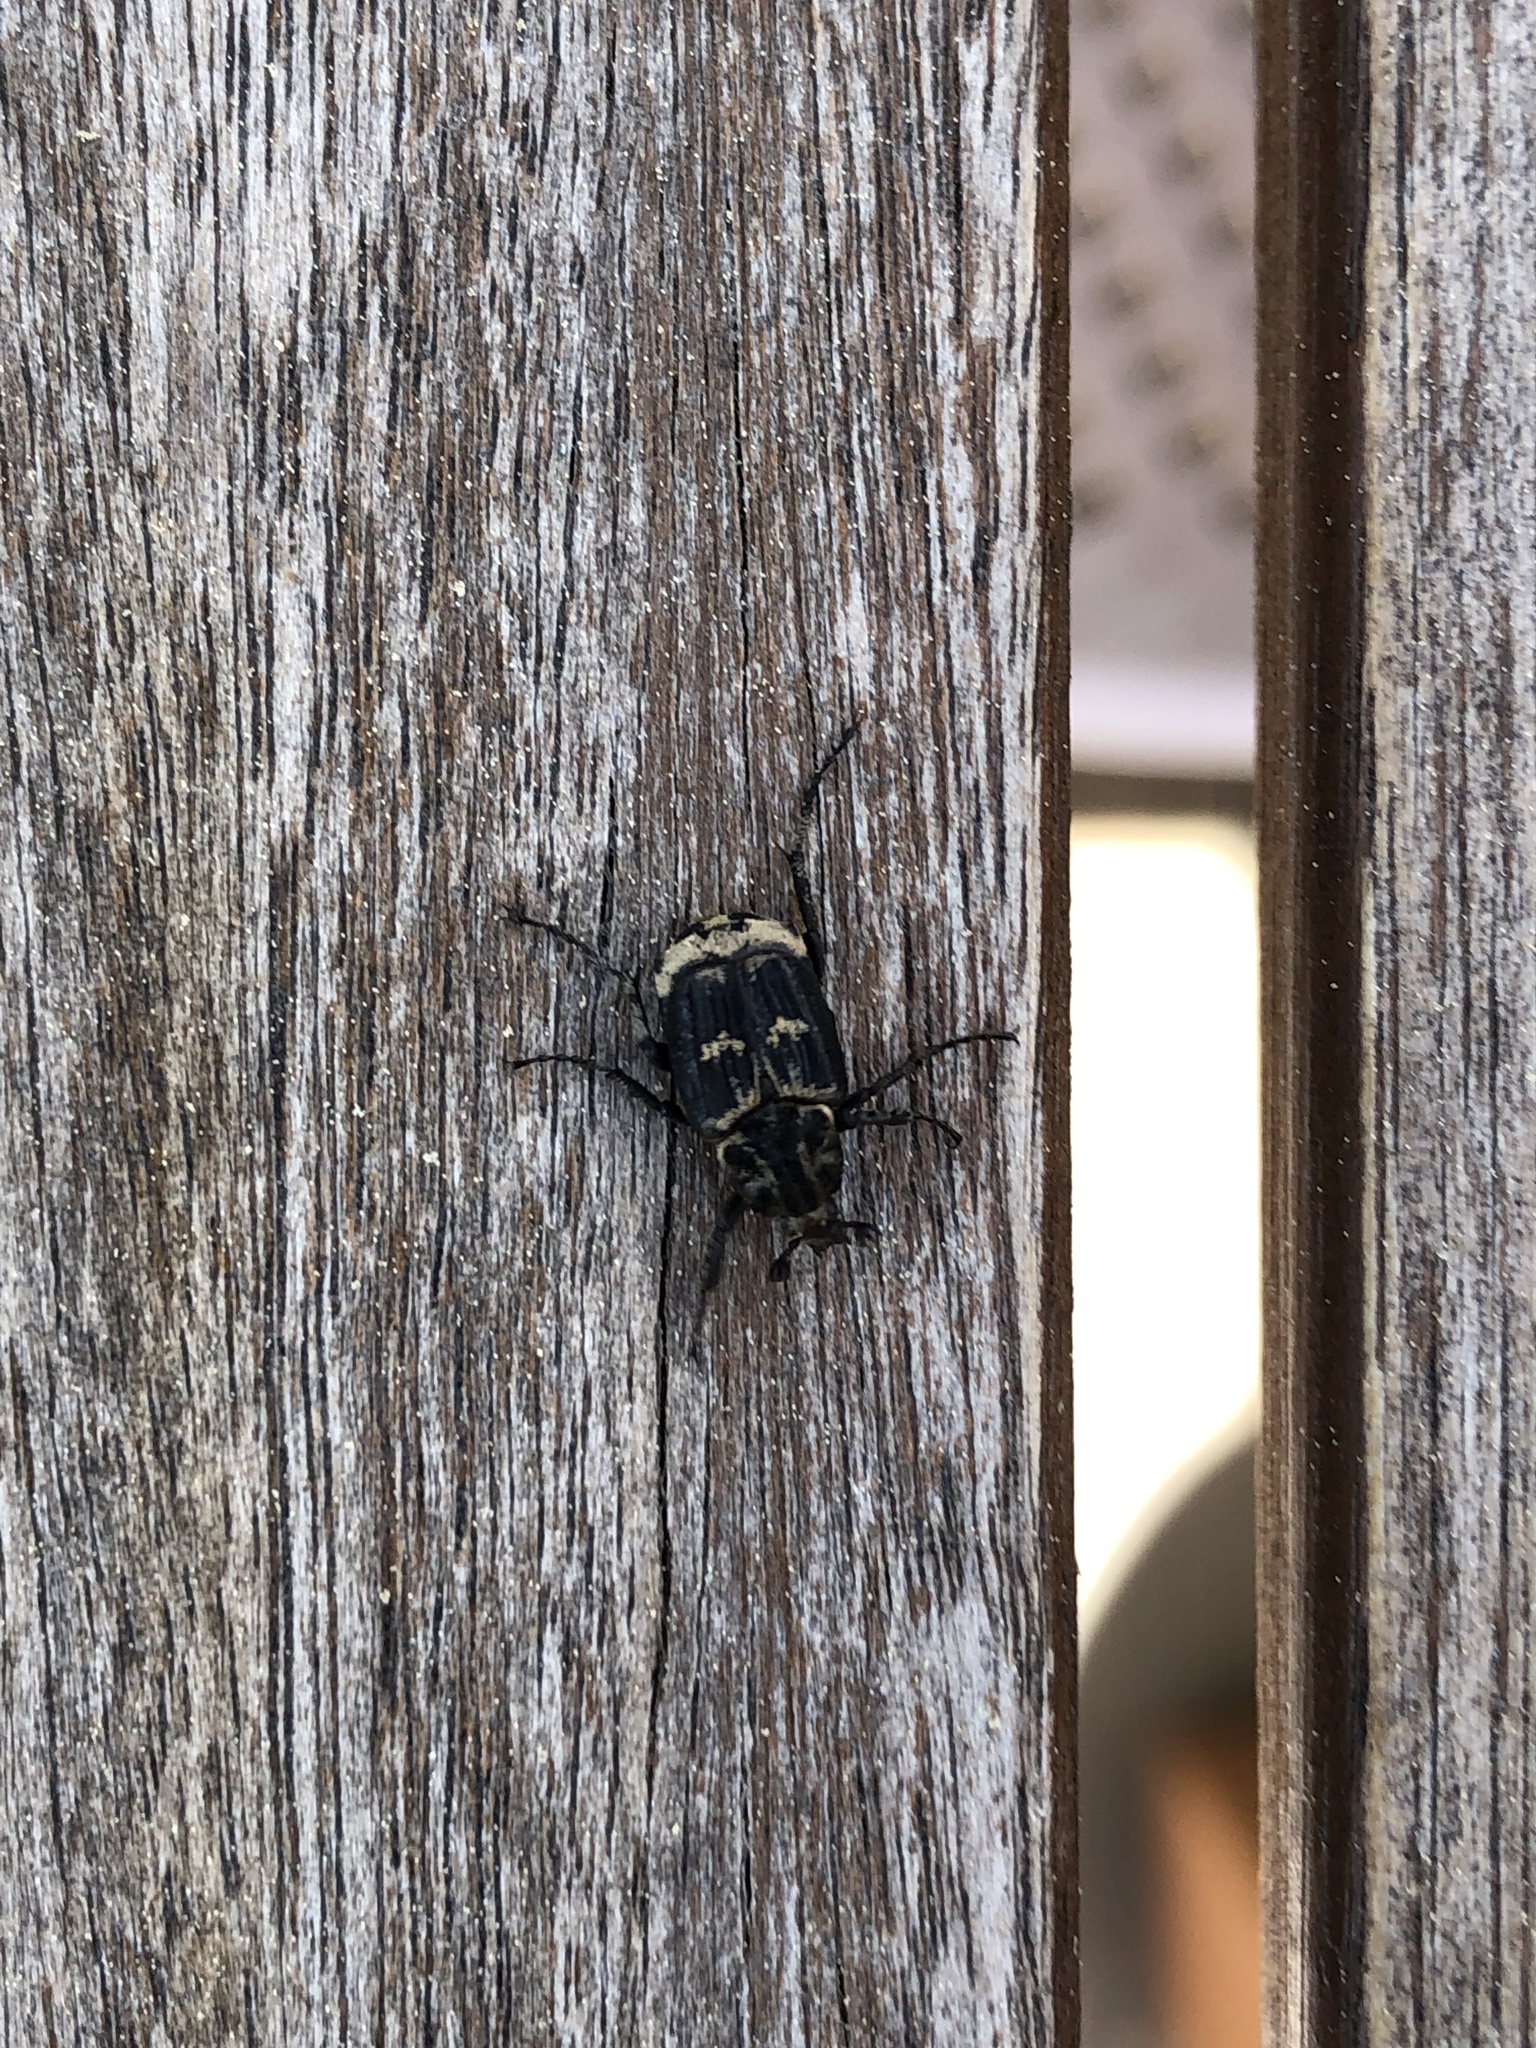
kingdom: Animalia
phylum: Arthropoda
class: Insecta
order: Coleoptera
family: Scarabaeidae
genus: Valgus
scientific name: Valgus hemipterus
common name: Bug flower chafer
